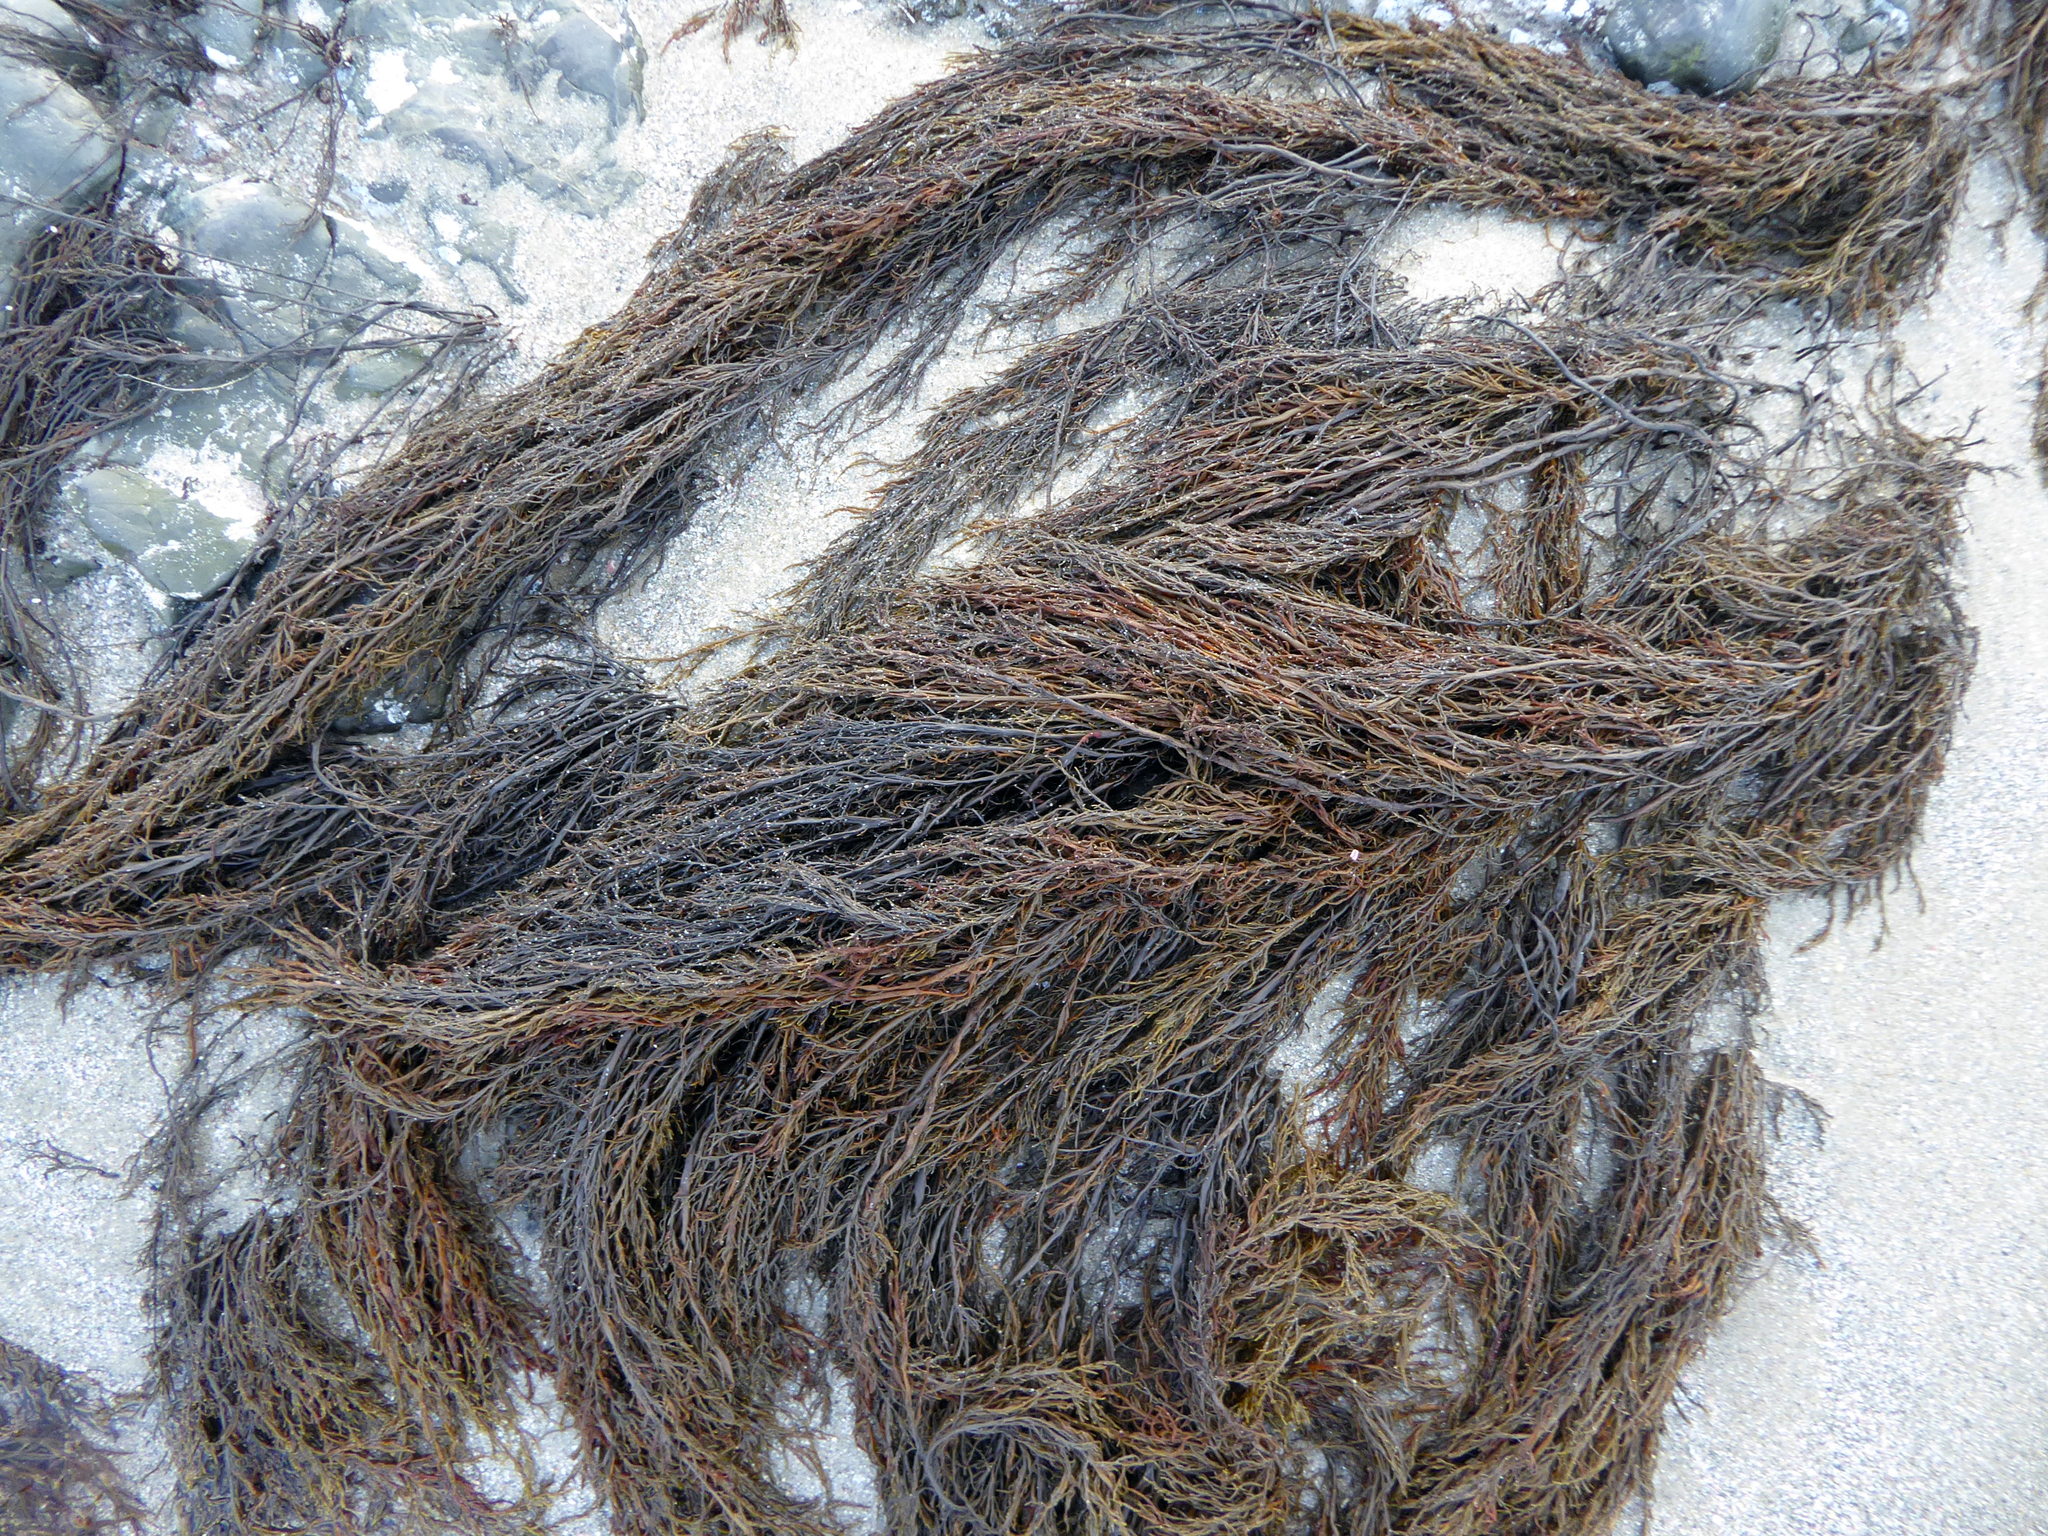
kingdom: Chromista
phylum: Ochrophyta
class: Phaeophyceae
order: Scytothamnales
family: Scytothamnaceae
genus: Scytothamnus
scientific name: Scytothamnus australis
